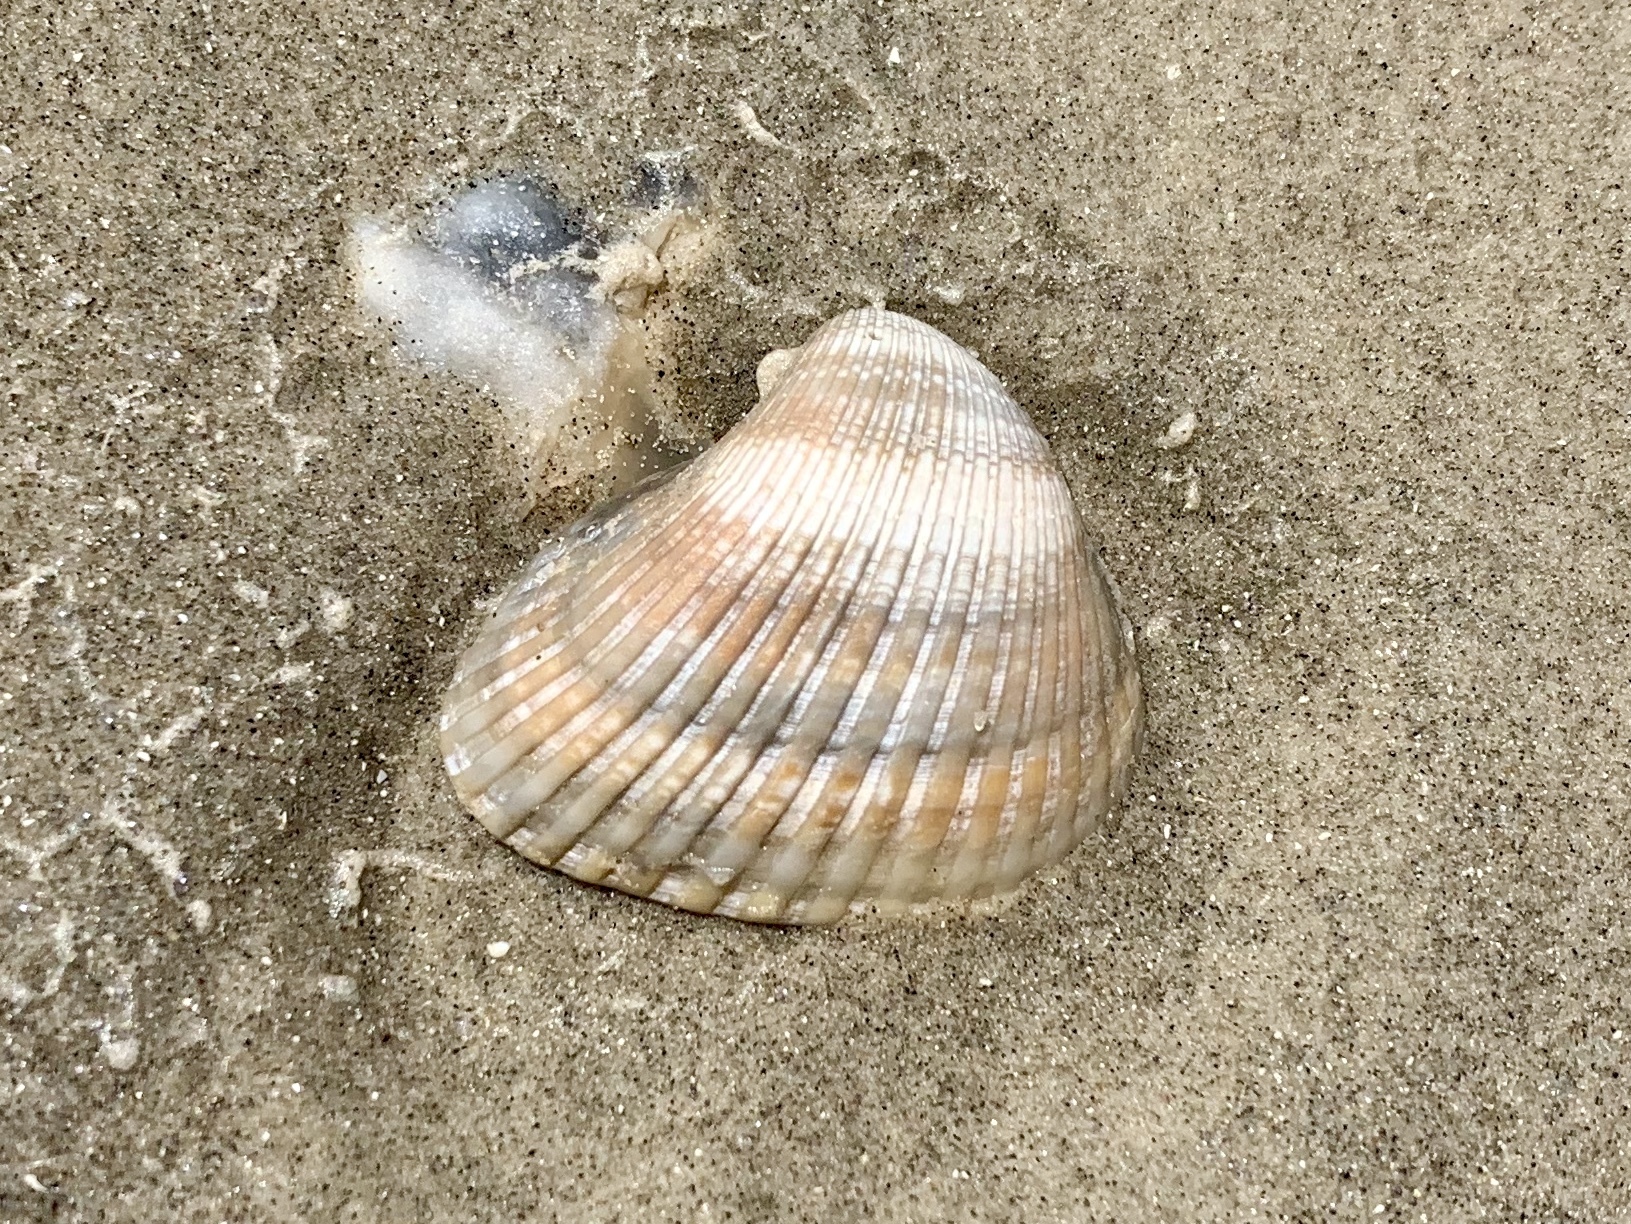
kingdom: Animalia
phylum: Mollusca
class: Bivalvia
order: Arcida
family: Noetiidae
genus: Noetia
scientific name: Noetia ponderosa
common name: Ponderous ark
